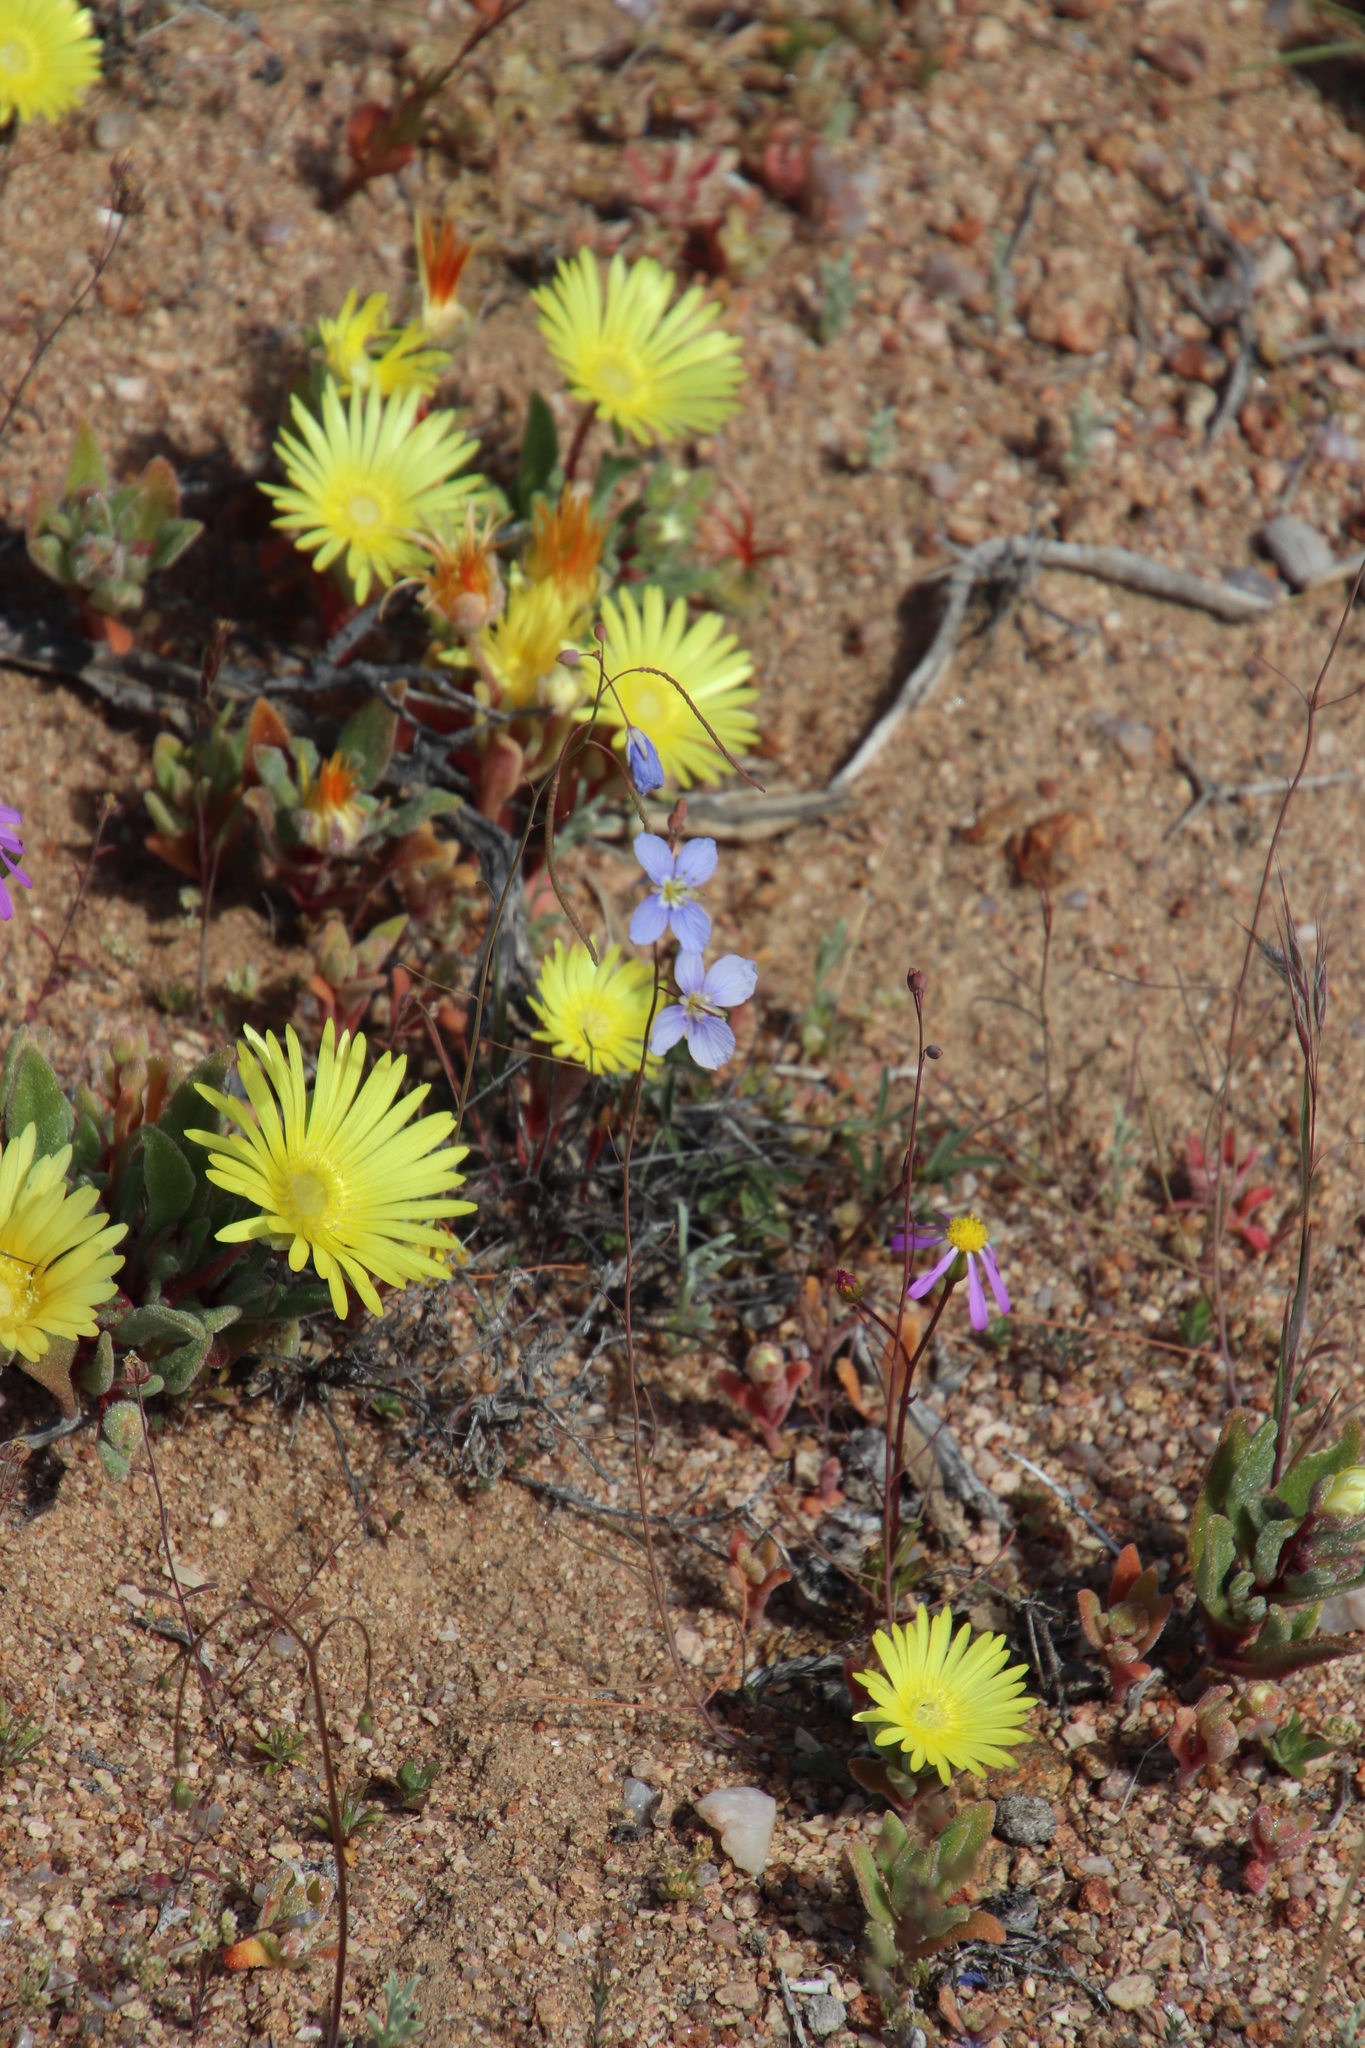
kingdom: Plantae
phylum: Tracheophyta
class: Magnoliopsida
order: Brassicales
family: Brassicaceae
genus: Heliophila
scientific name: Heliophila leptophylla
